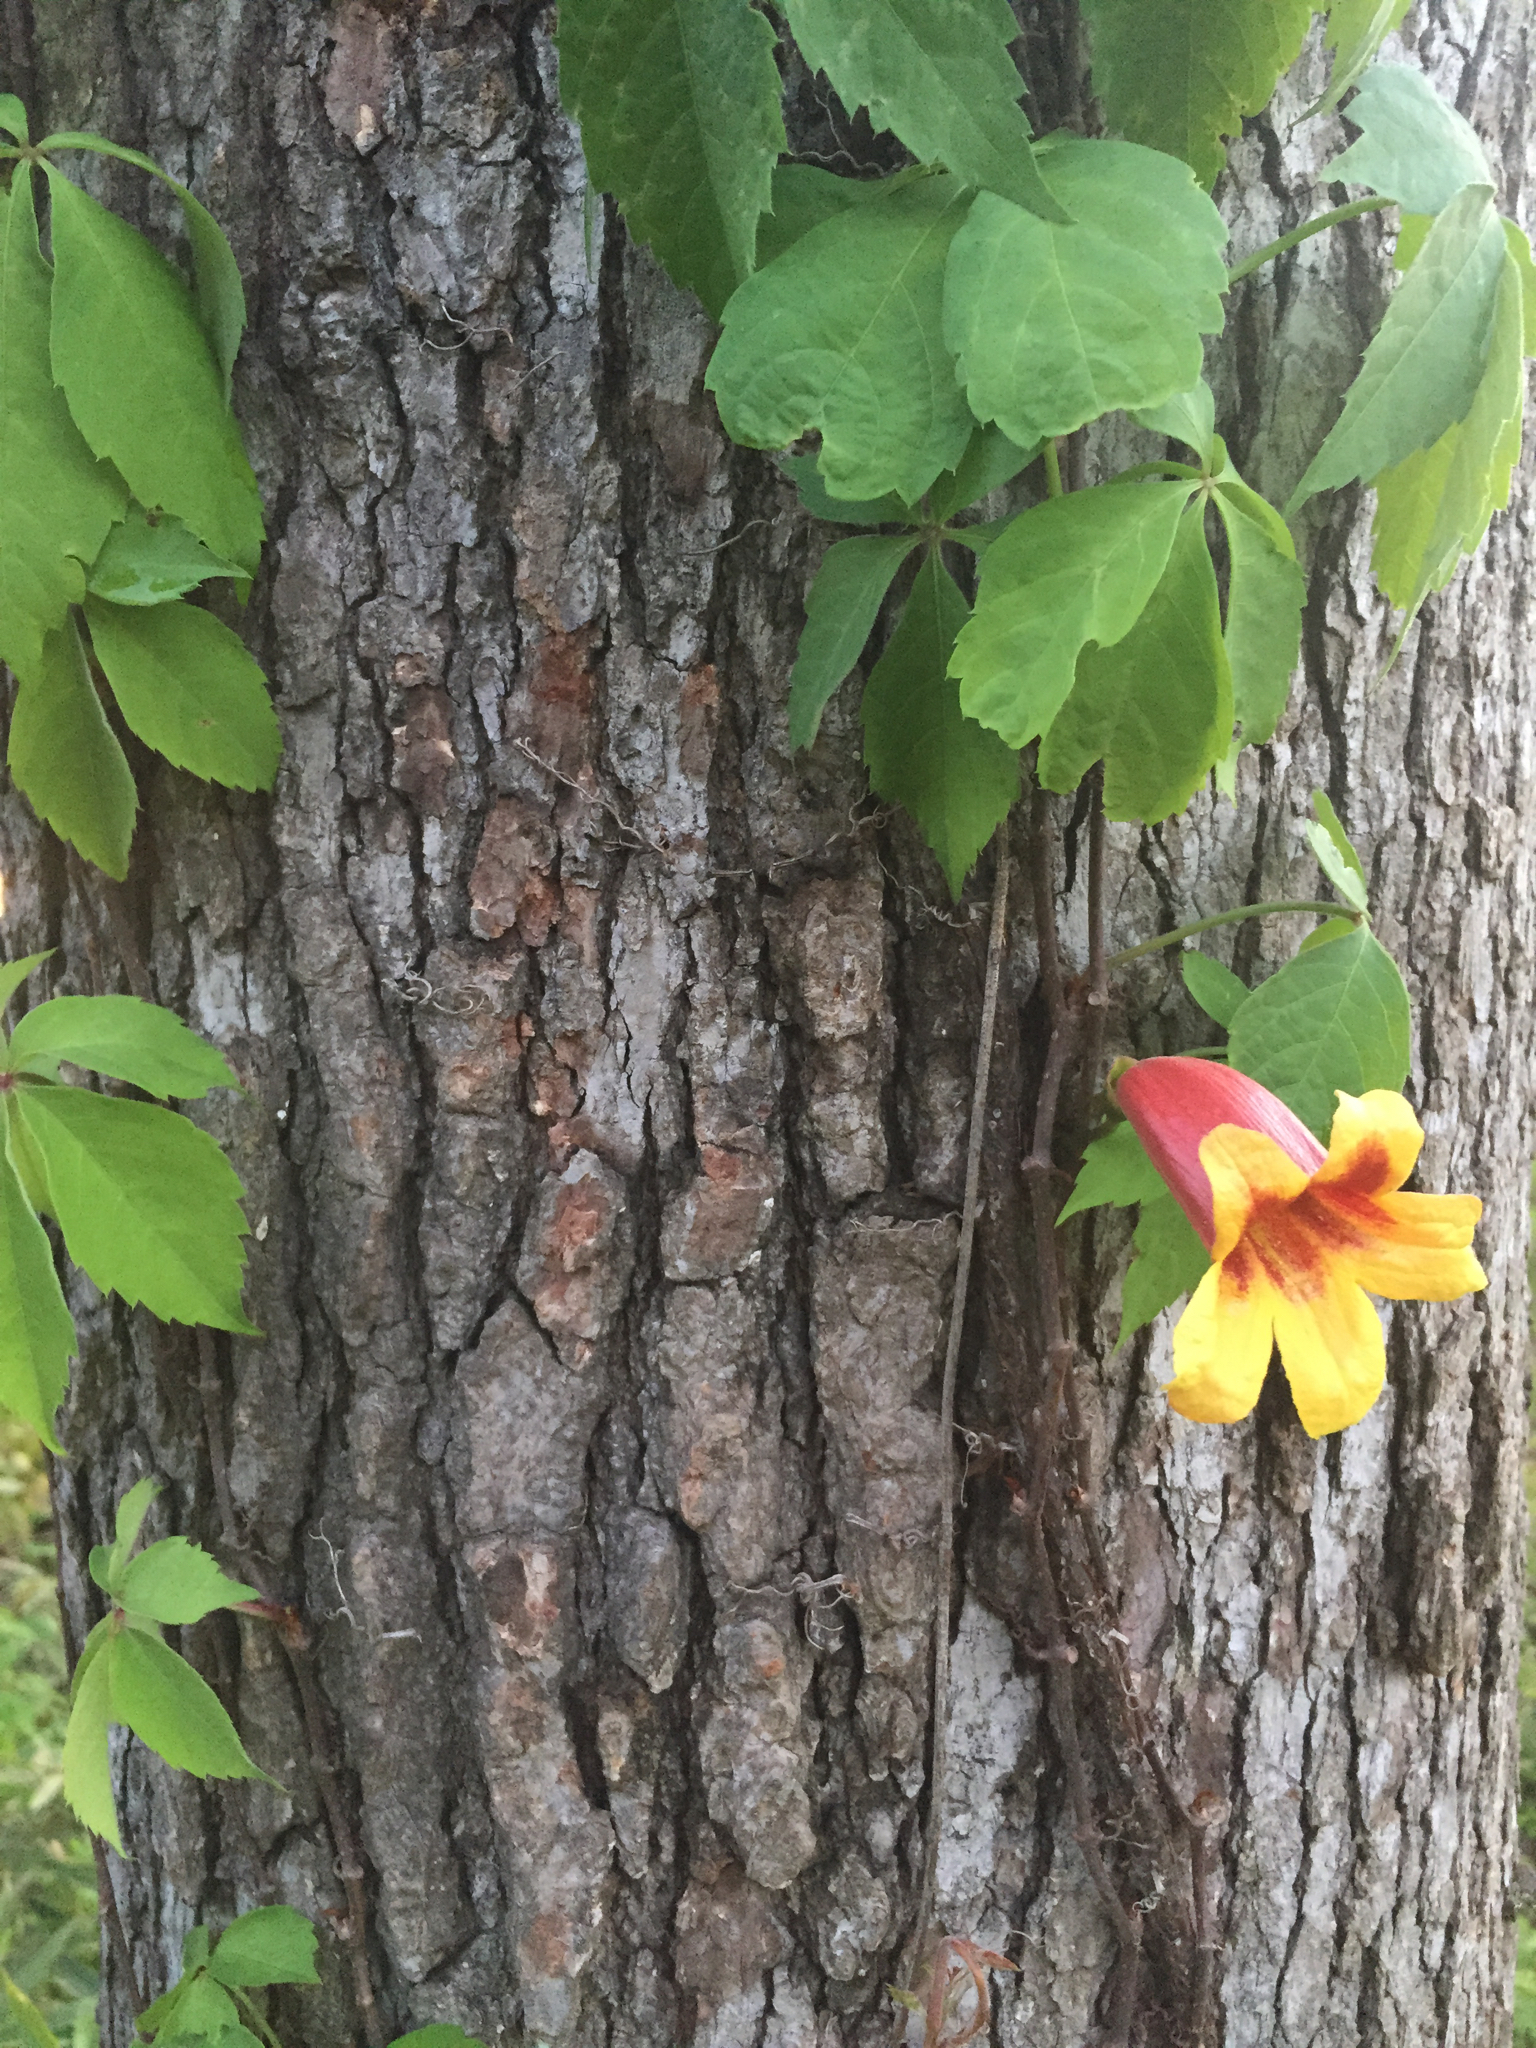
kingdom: Plantae
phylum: Tracheophyta
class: Magnoliopsida
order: Lamiales
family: Bignoniaceae
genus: Bignonia
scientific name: Bignonia capreolata
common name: Crossvine
